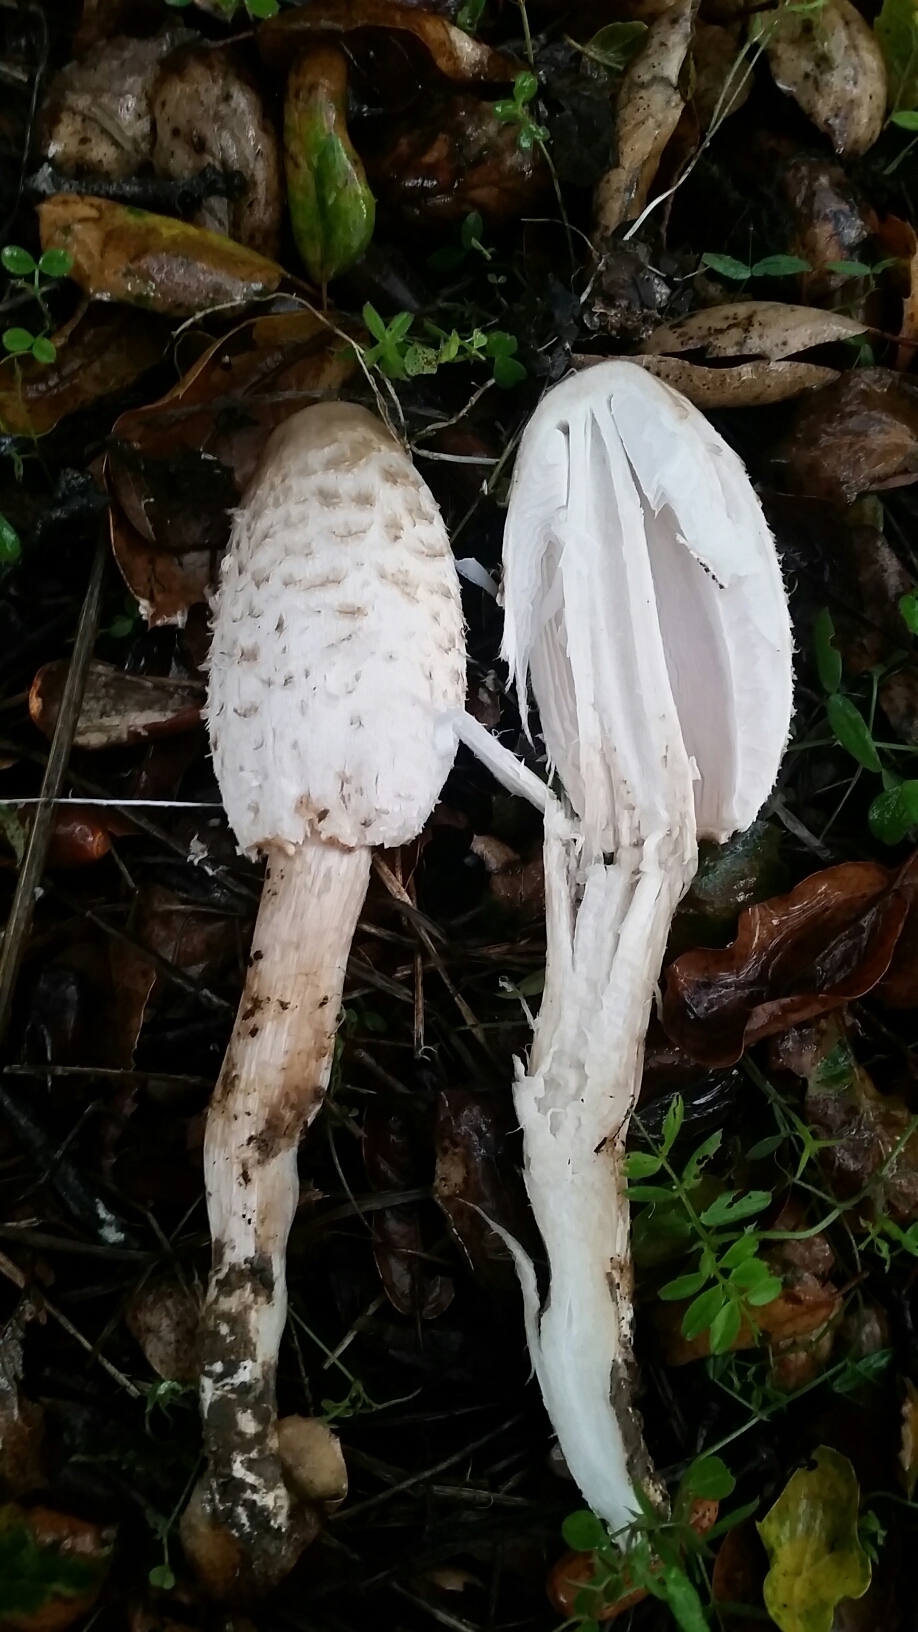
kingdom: Fungi
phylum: Basidiomycota
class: Agaricomycetes
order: Agaricales
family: Agaricaceae
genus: Coprinus
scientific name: Coprinus comatus
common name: Lawyer's wig
